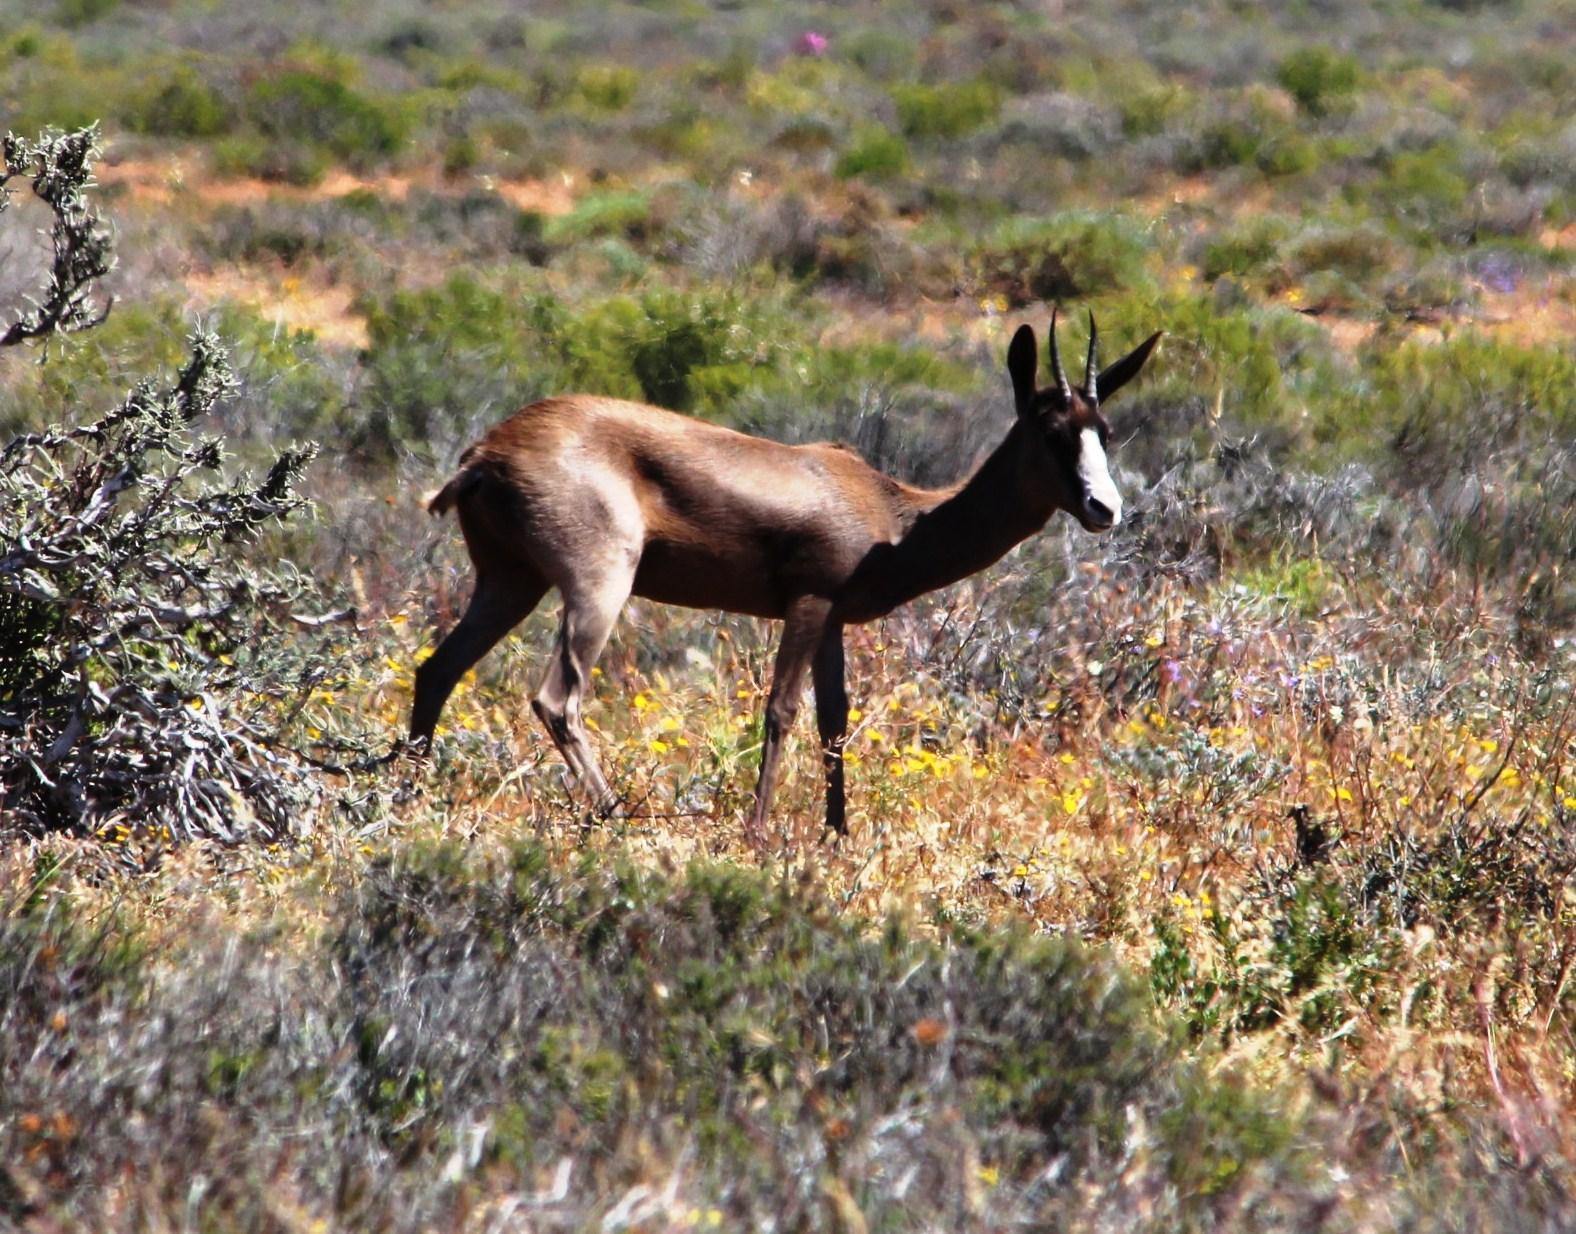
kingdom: Animalia
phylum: Chordata
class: Mammalia
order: Artiodactyla
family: Bovidae
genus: Antidorcas
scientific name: Antidorcas marsupialis
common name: Springbok
